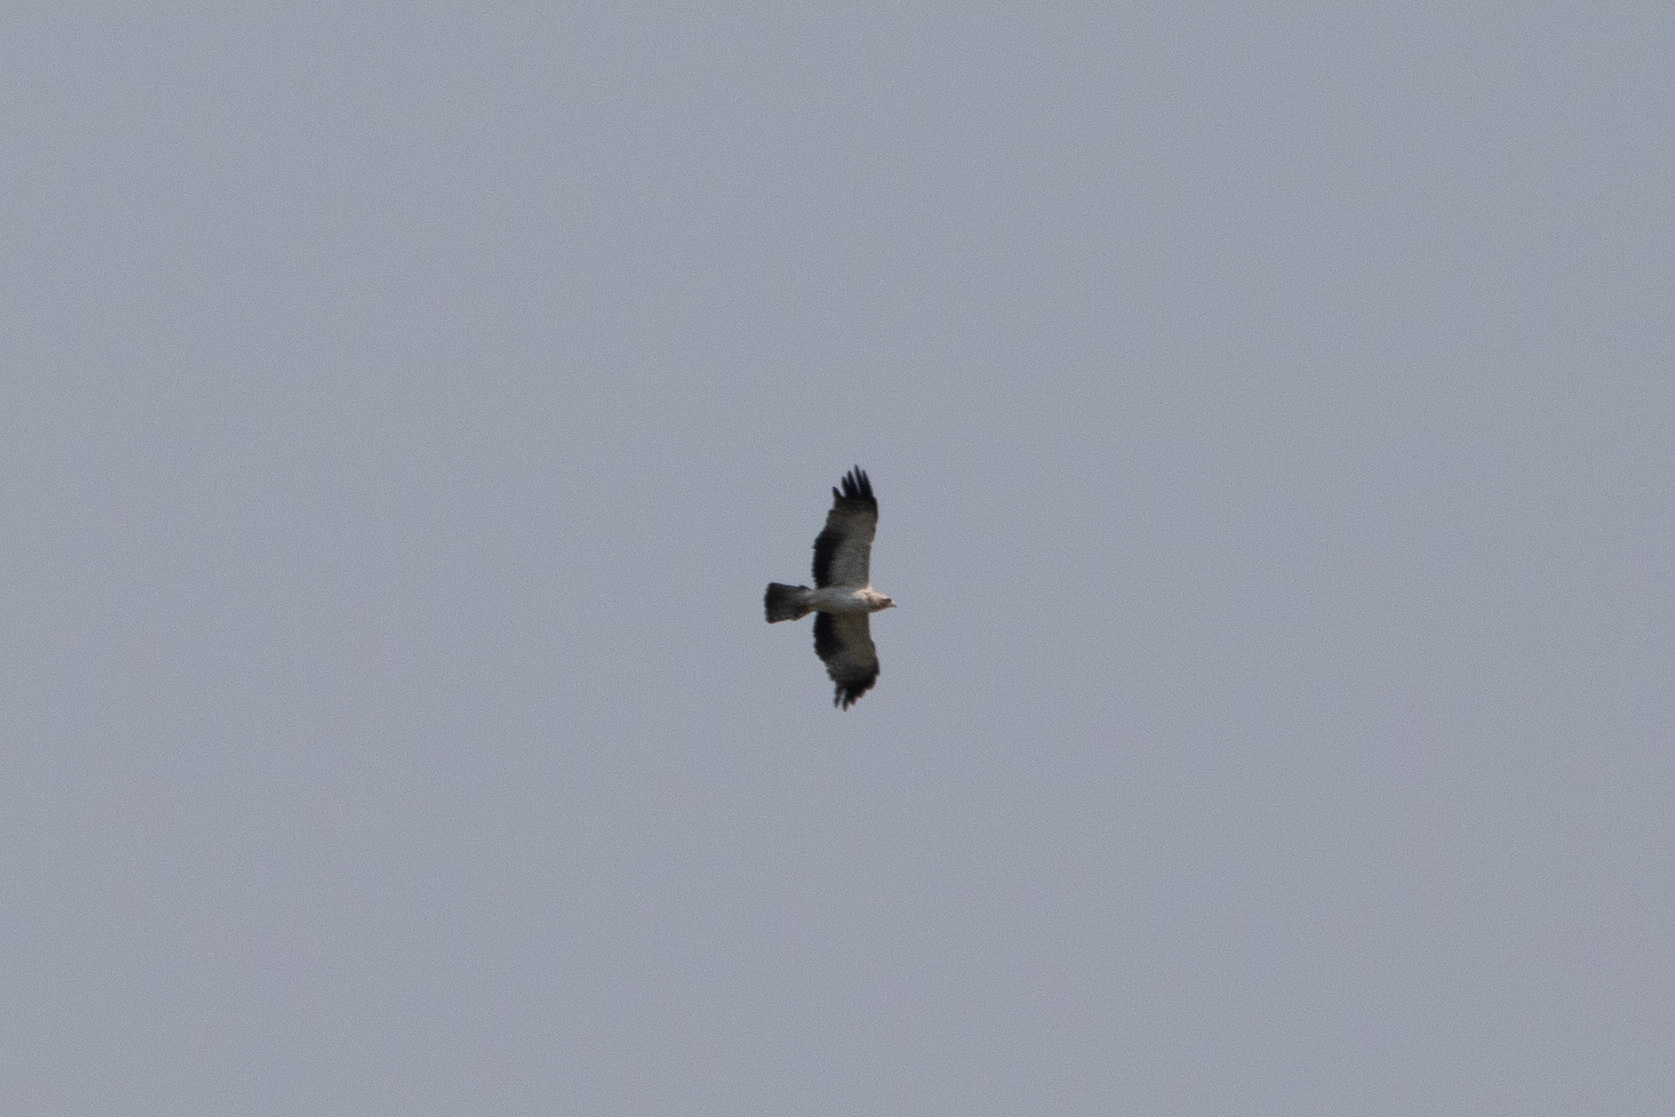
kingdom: Animalia
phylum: Chordata
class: Aves
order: Accipitriformes
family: Accipitridae
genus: Hieraaetus
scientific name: Hieraaetus pennatus
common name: Booted eagle
